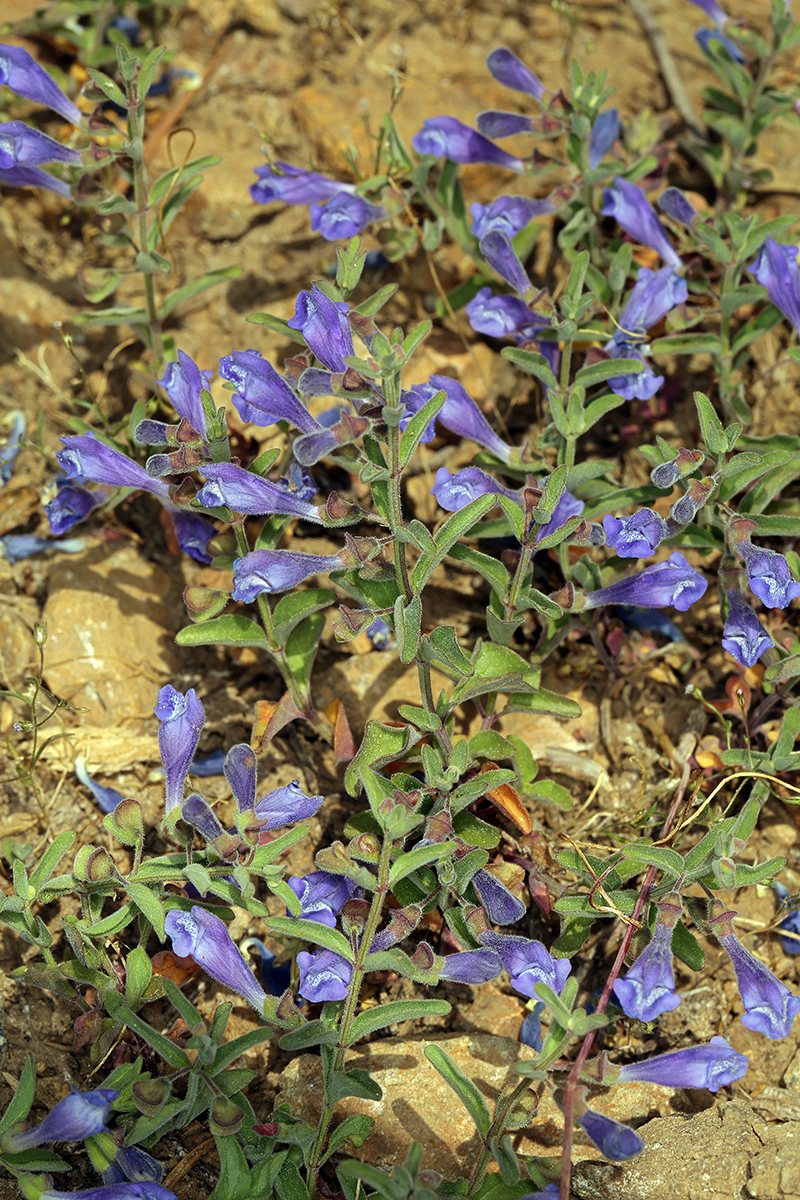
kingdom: Plantae
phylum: Tracheophyta
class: Magnoliopsida
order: Lamiales
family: Lamiaceae
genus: Scutellaria
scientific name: Scutellaria antirrhinoides
